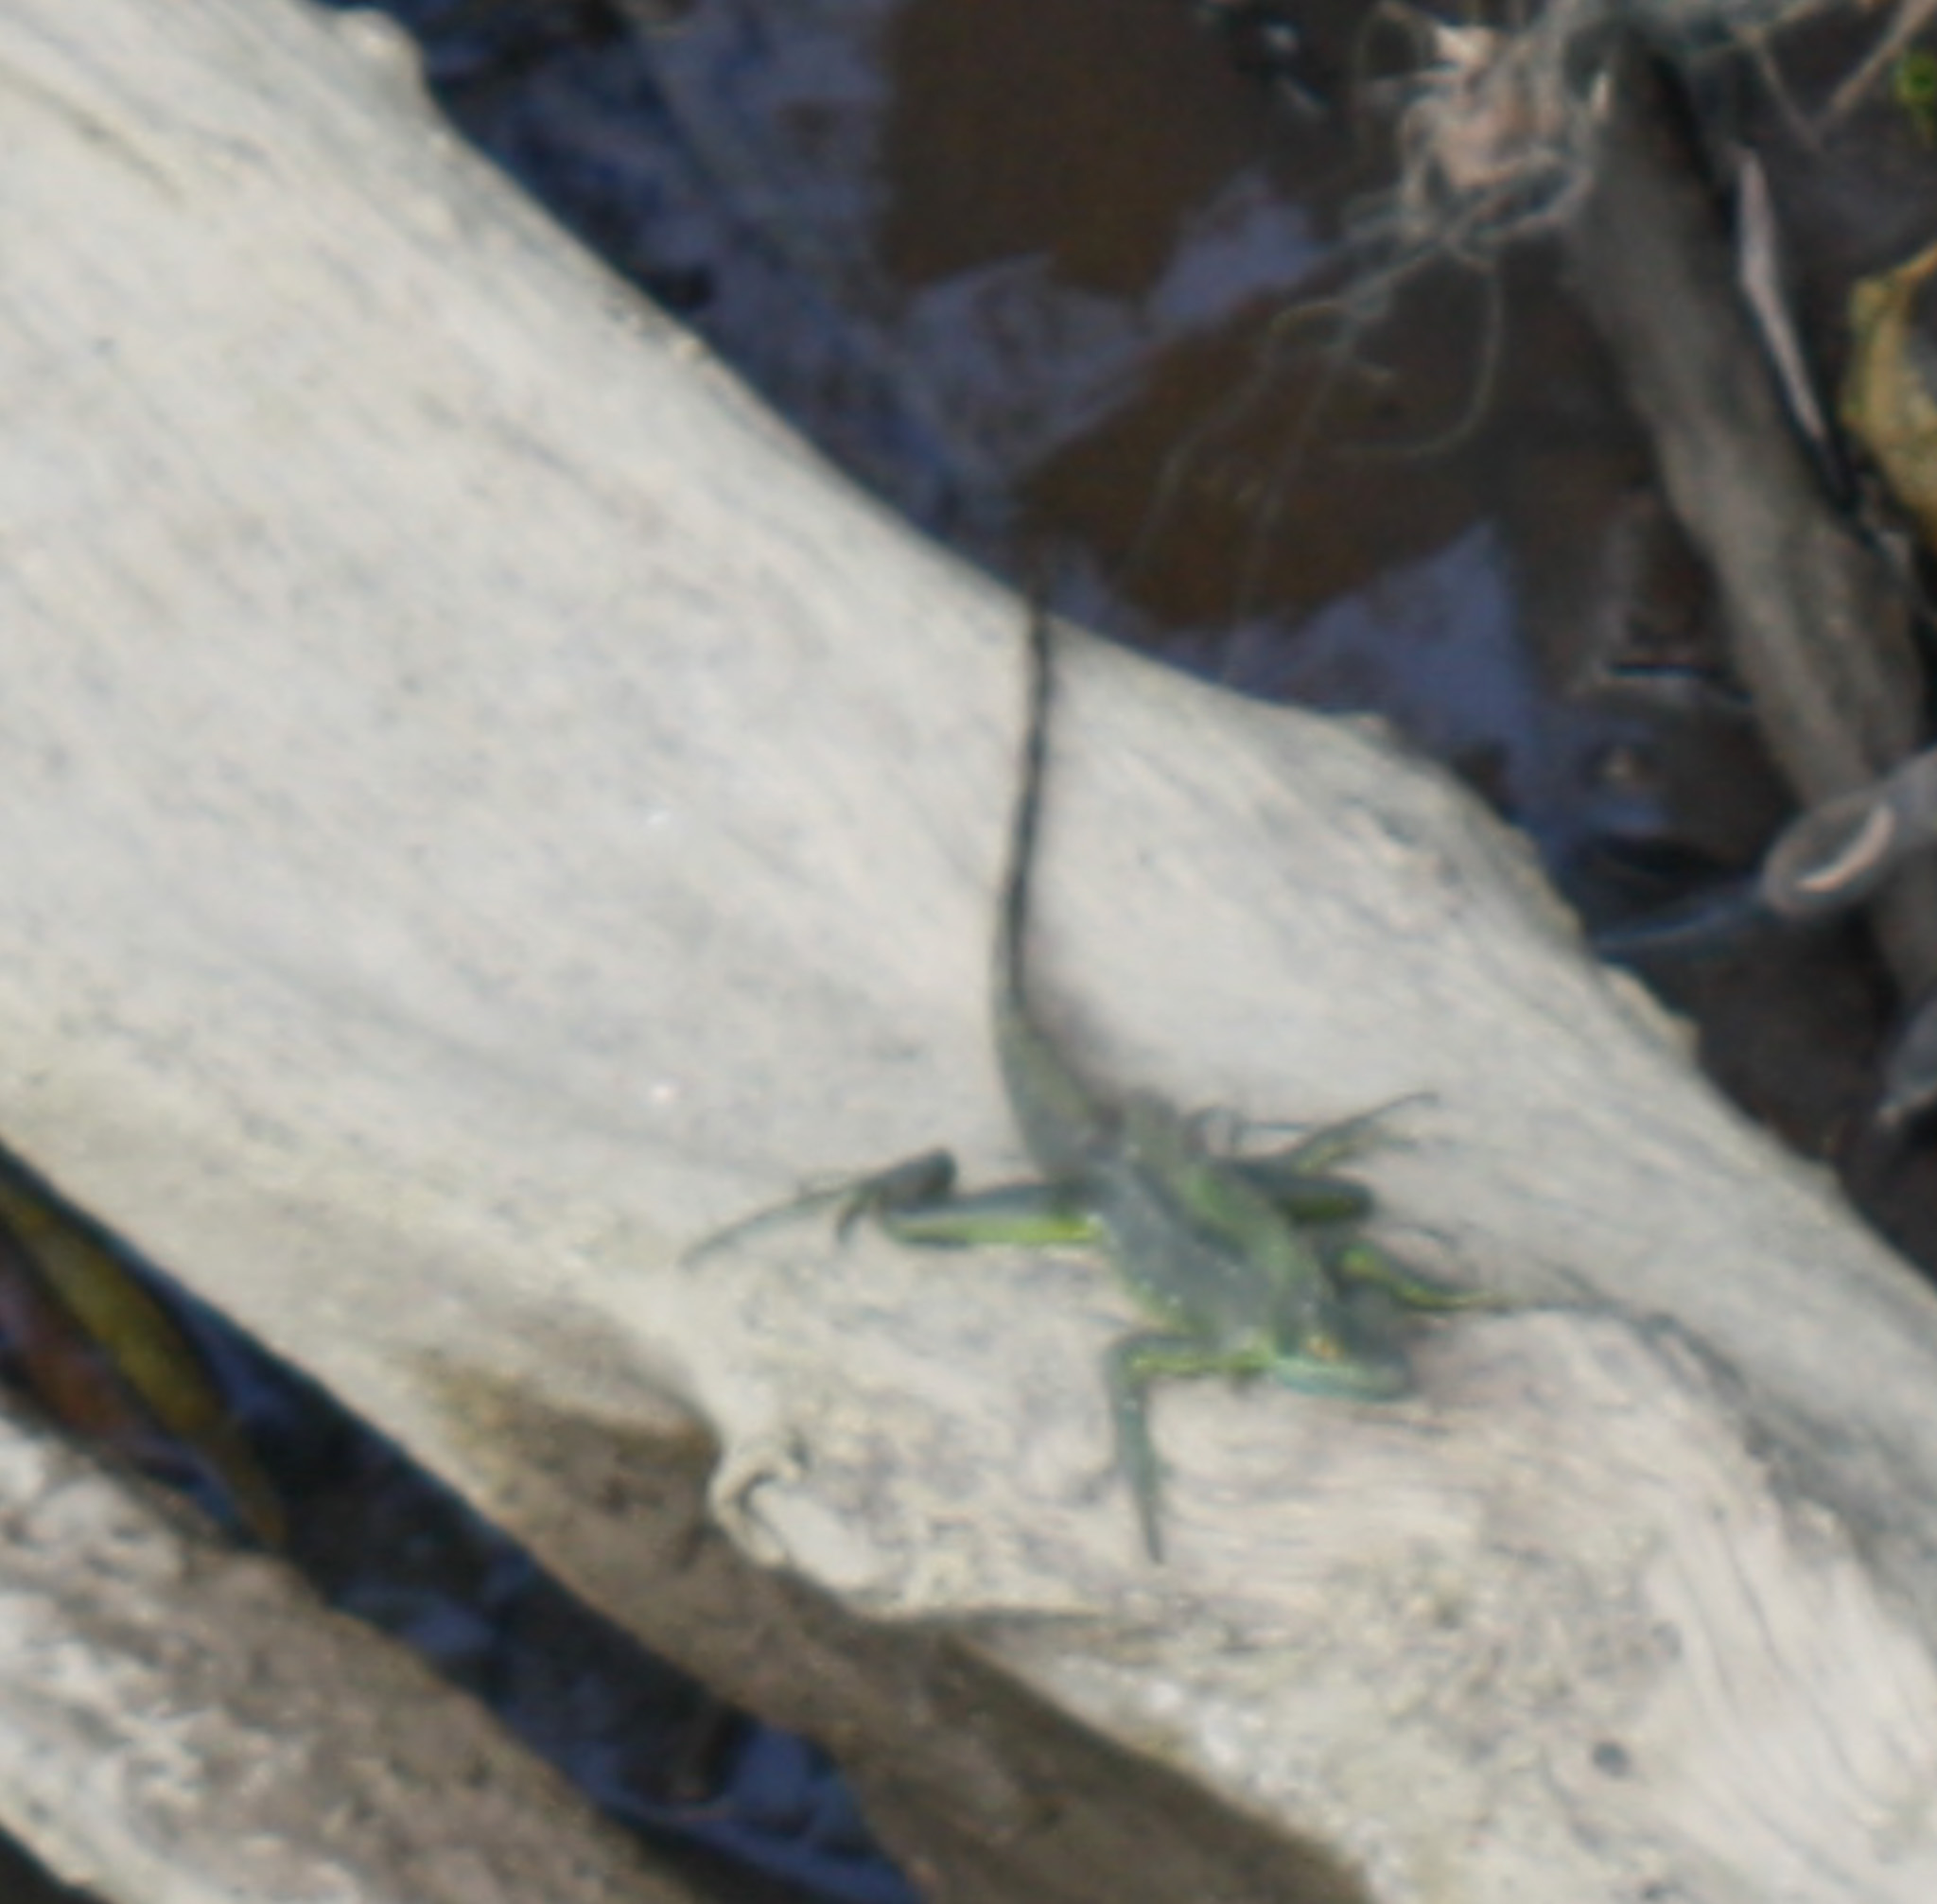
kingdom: Animalia
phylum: Chordata
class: Squamata
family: Corytophanidae
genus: Basiliscus
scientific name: Basiliscus plumifrons
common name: Green basilisk
